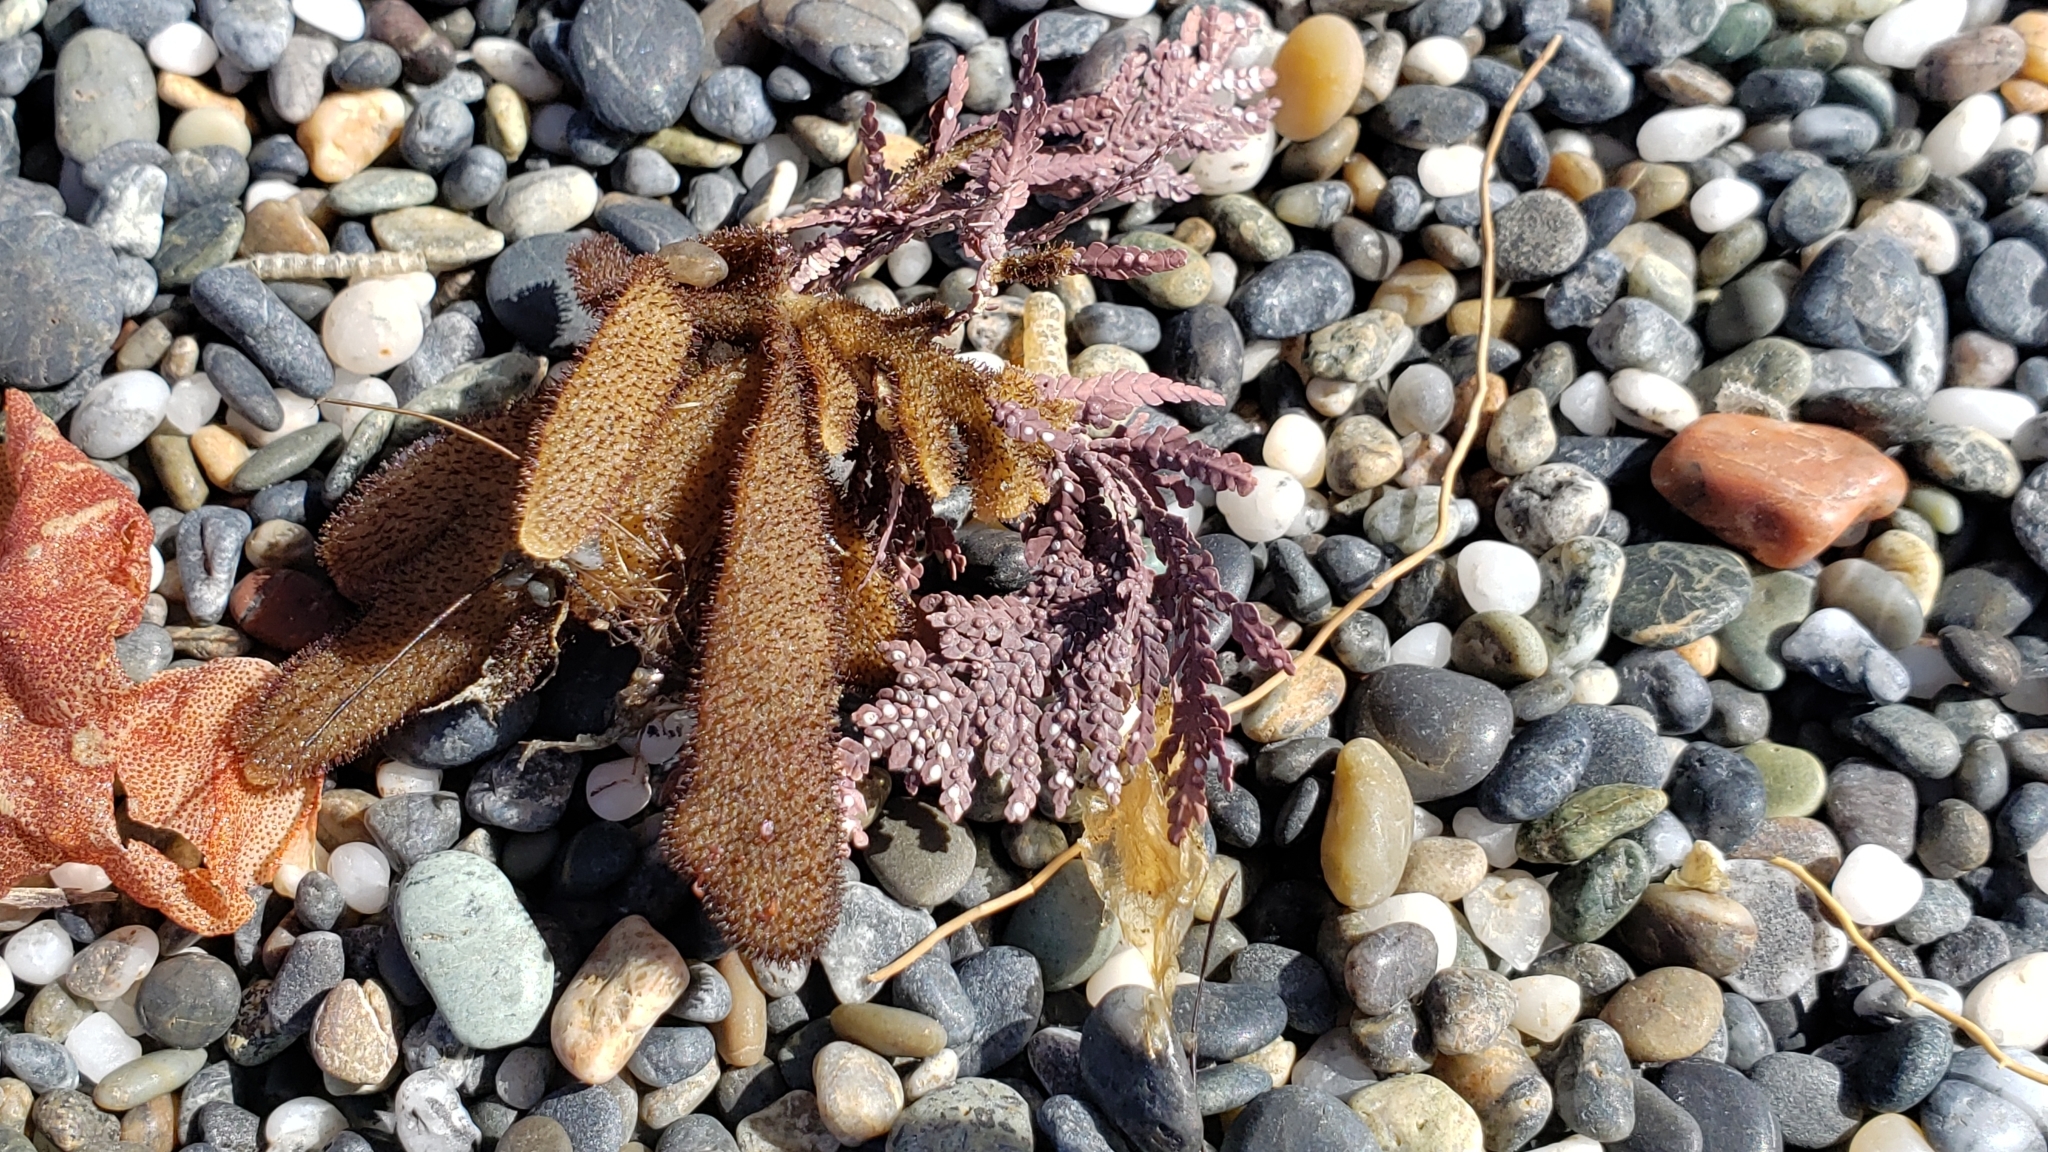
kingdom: Animalia
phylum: Bryozoa
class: Gymnolaemata
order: Ctenostomatida
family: Flustrellidridae
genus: Flustrellidra
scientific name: Flustrellidra corniculata
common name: Spiny leather bryozoan
